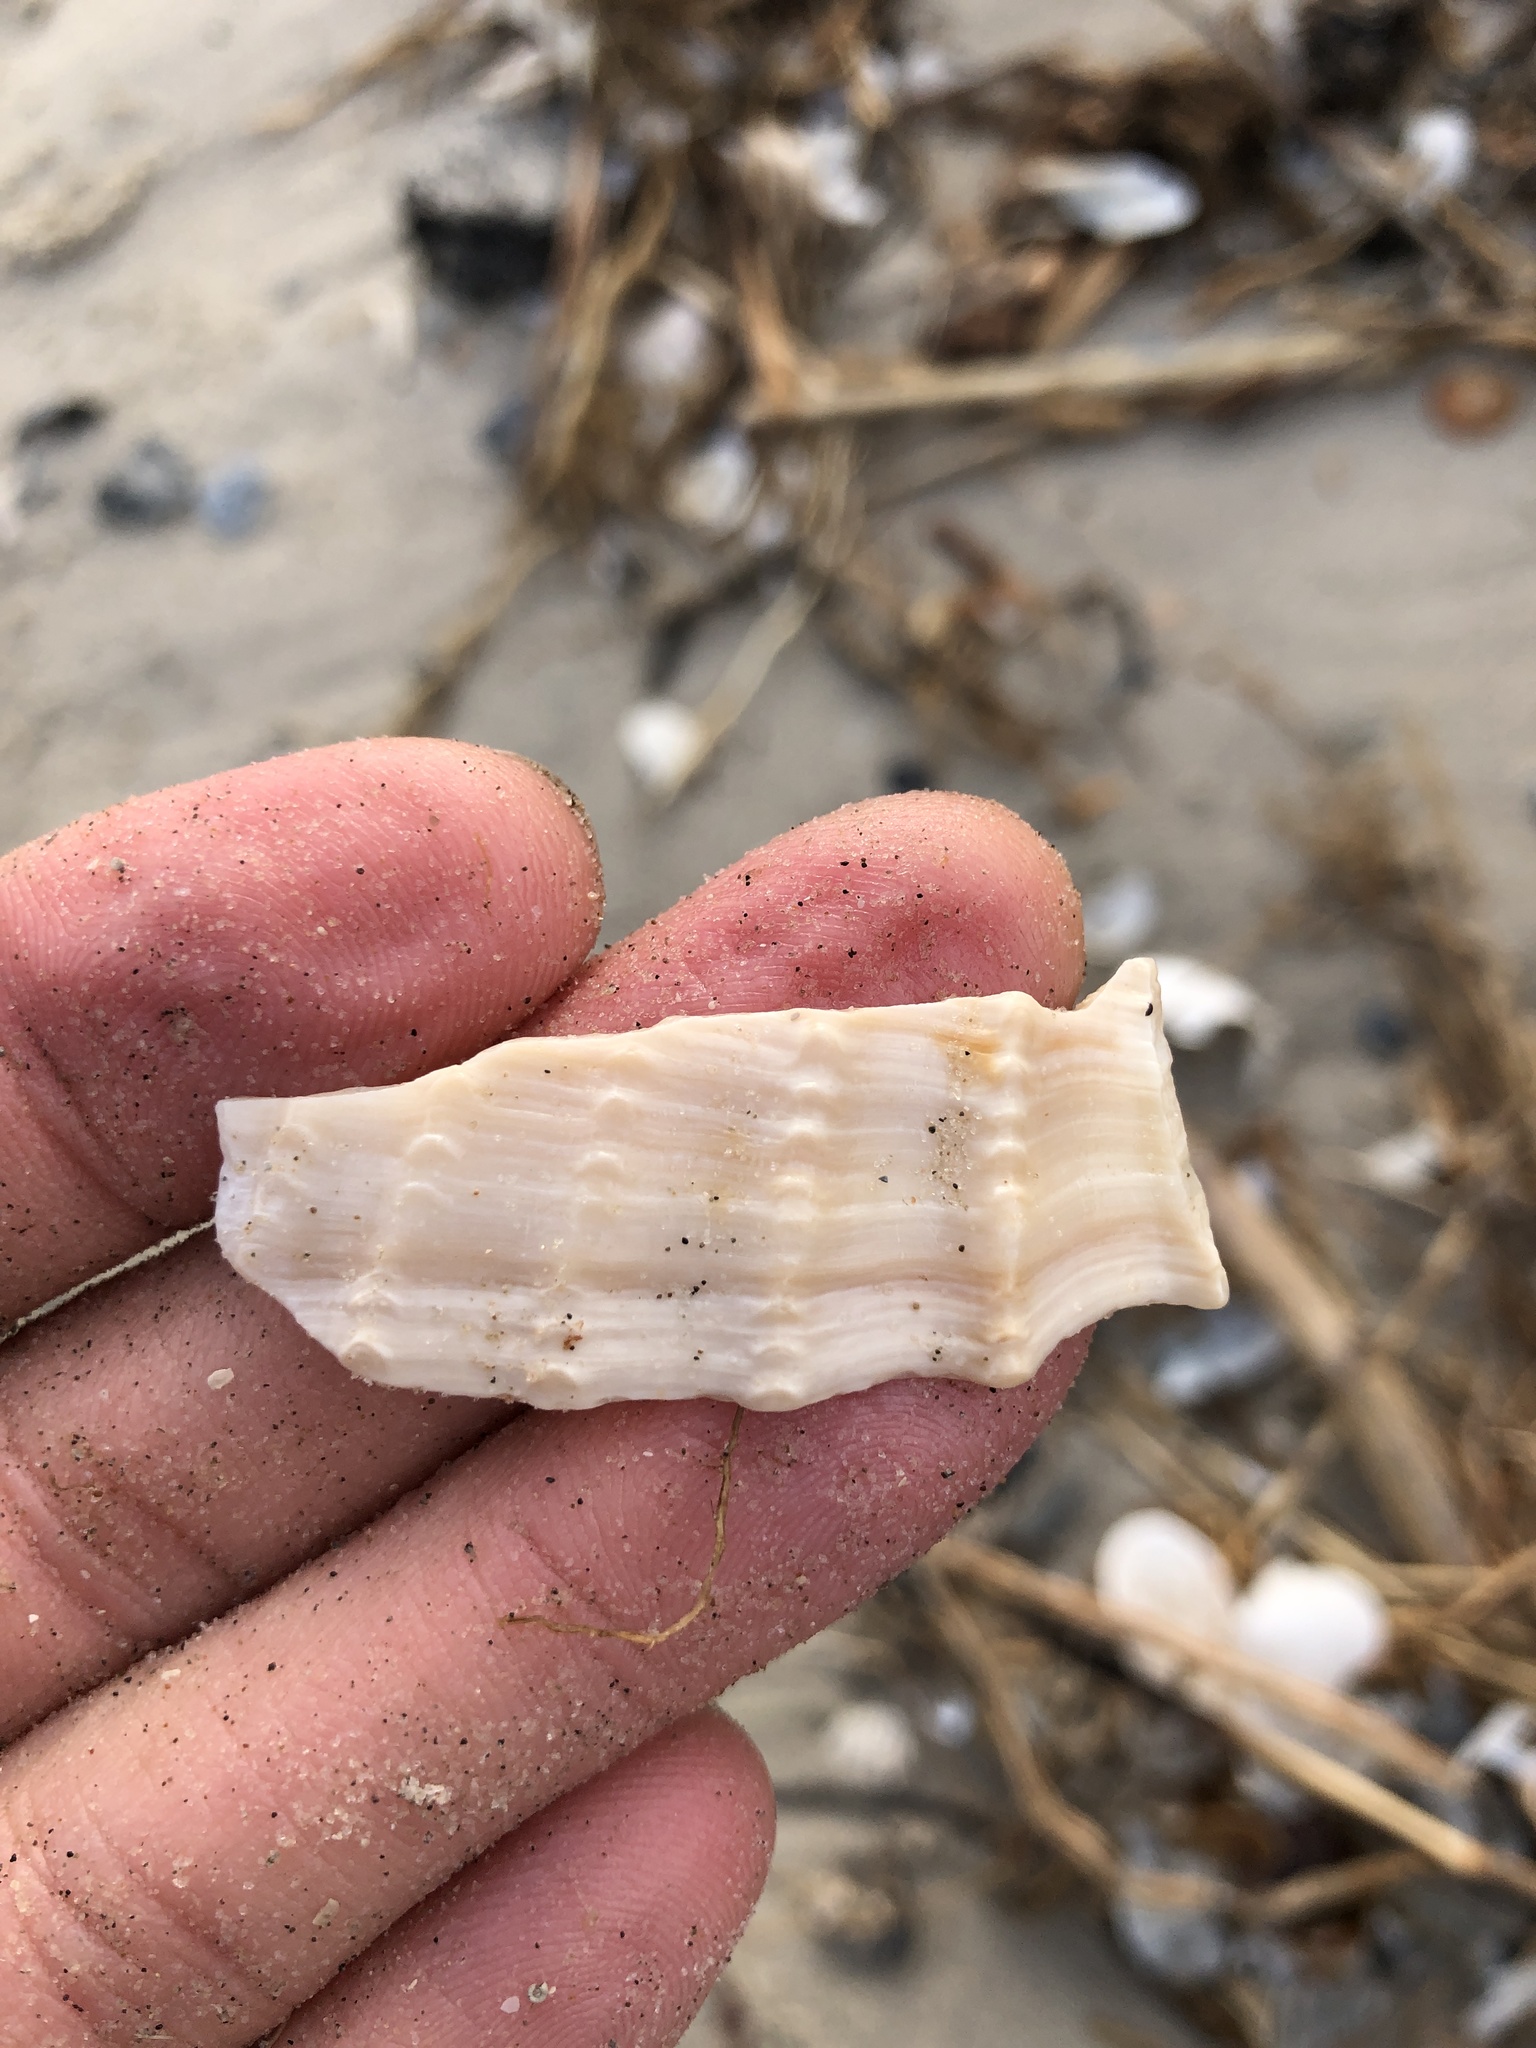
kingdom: Animalia
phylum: Mollusca
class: Bivalvia
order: Myida
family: Pholadidae
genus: Cyrtopleura
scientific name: Cyrtopleura costata
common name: Angel wing
